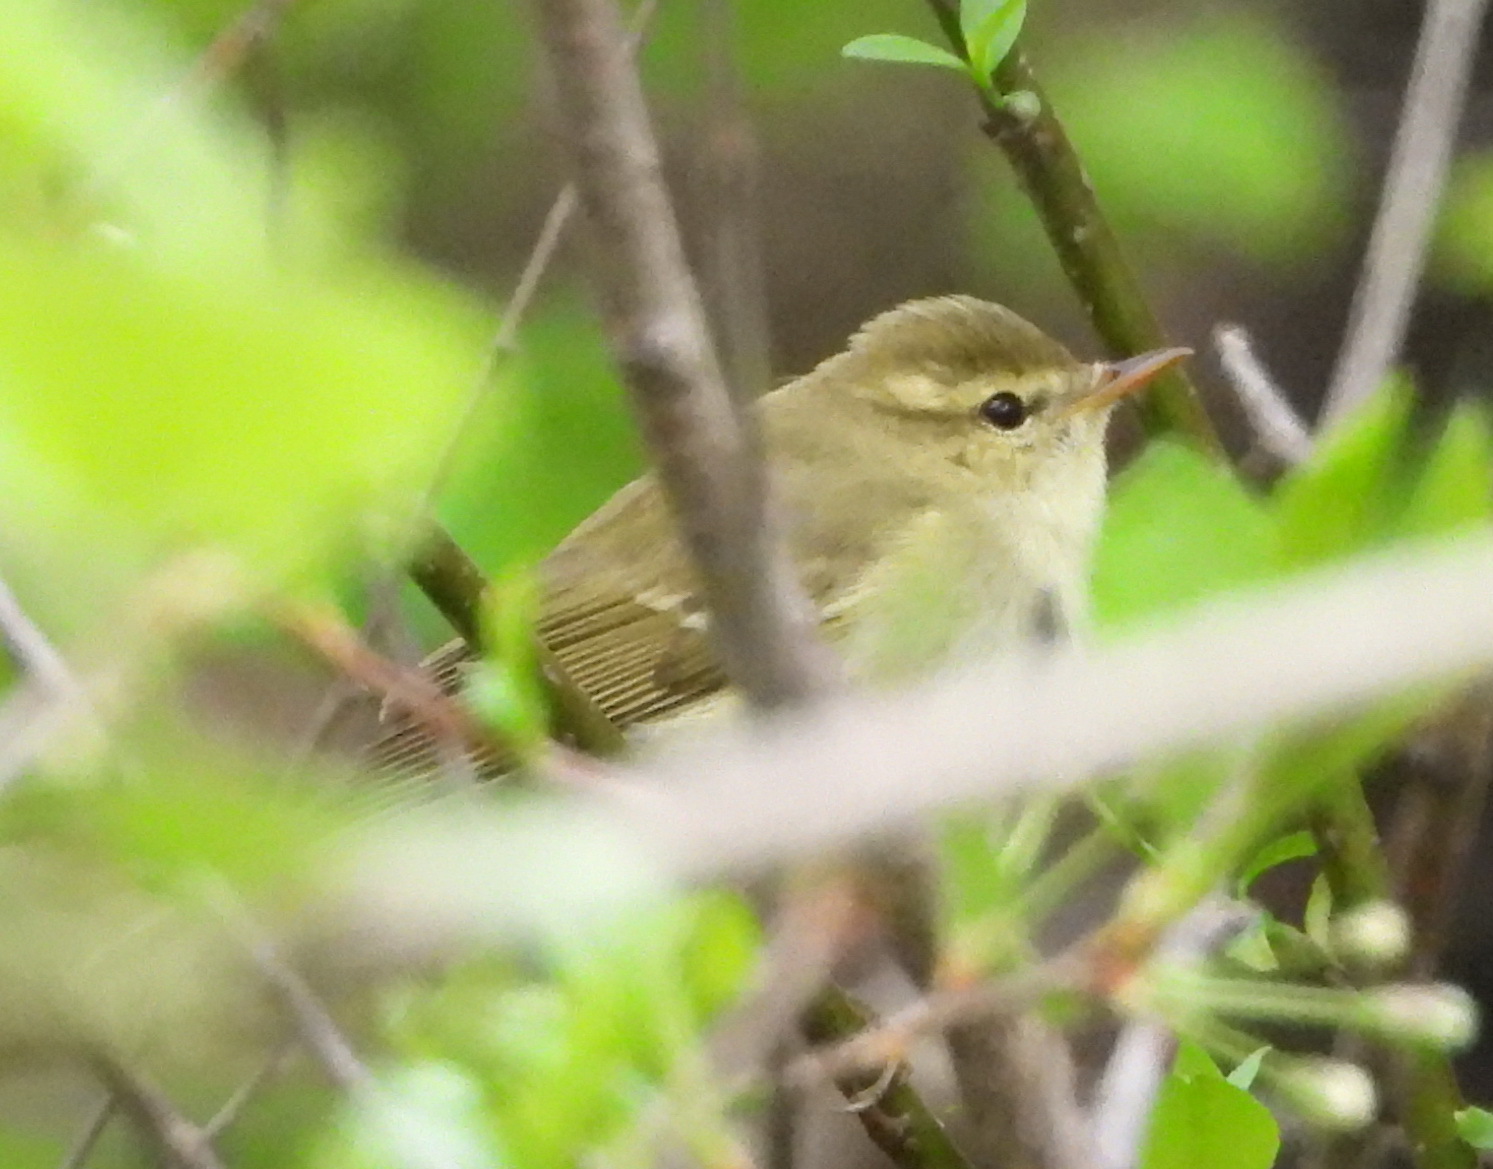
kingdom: Animalia
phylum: Chordata
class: Aves
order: Passeriformes
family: Phylloscopidae
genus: Phylloscopus
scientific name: Phylloscopus trochiloides
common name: Greenish warbler
